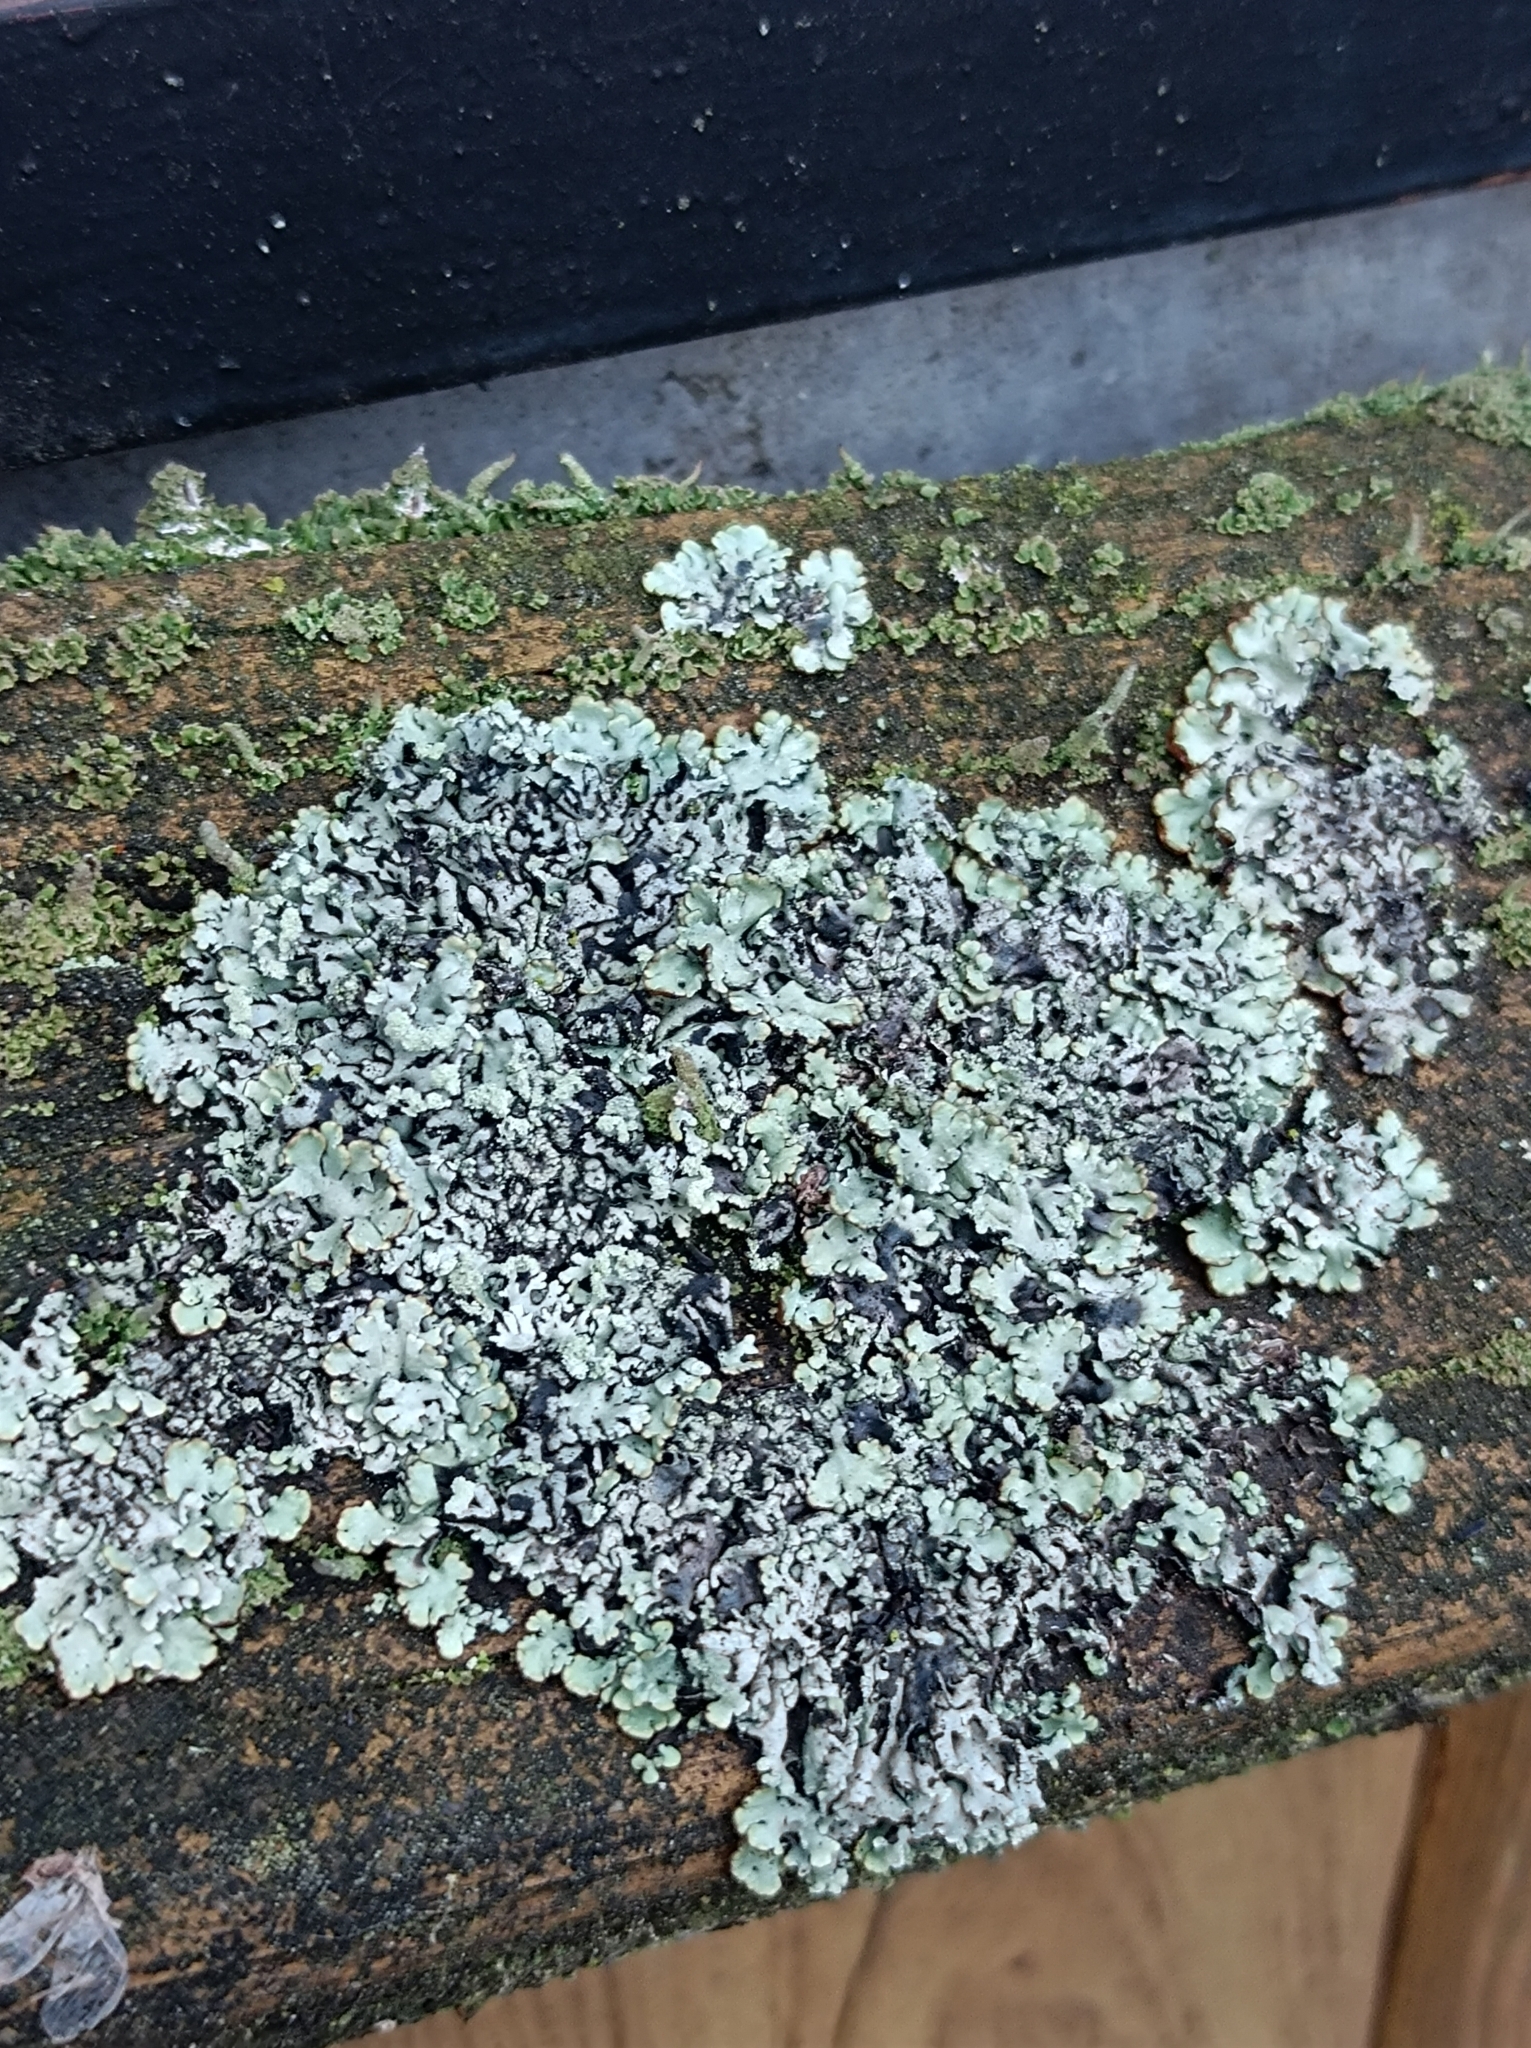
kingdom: Fungi
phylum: Ascomycota
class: Lecanoromycetes
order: Lecanorales
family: Parmeliaceae
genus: Hypogymnia
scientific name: Hypogymnia physodes
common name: Dark crottle
